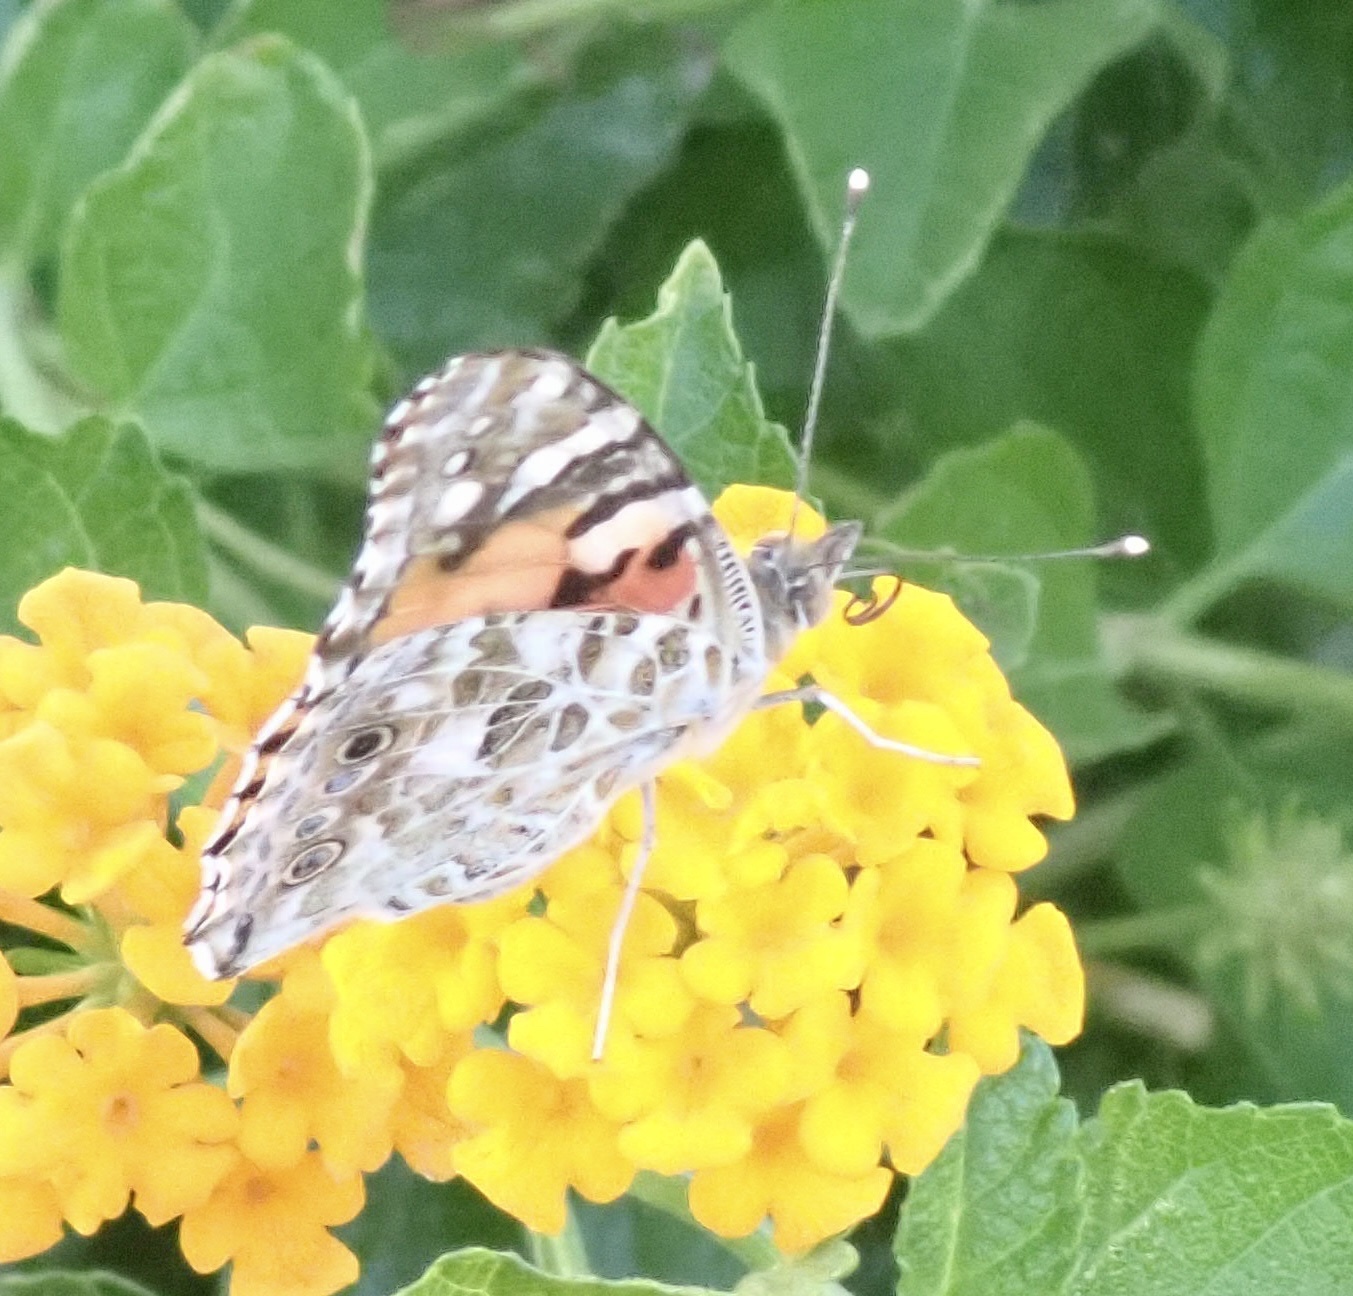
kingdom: Animalia
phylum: Arthropoda
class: Insecta
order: Lepidoptera
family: Nymphalidae
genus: Vanessa
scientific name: Vanessa cardui
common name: Painted lady
